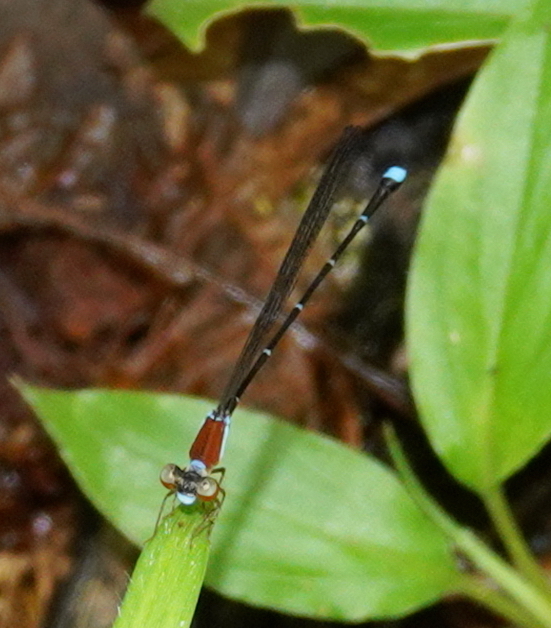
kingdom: Animalia
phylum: Arthropoda
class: Insecta
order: Odonata
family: Platystictidae
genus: Ceylonosticta
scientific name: Ceylonosticta brincki
